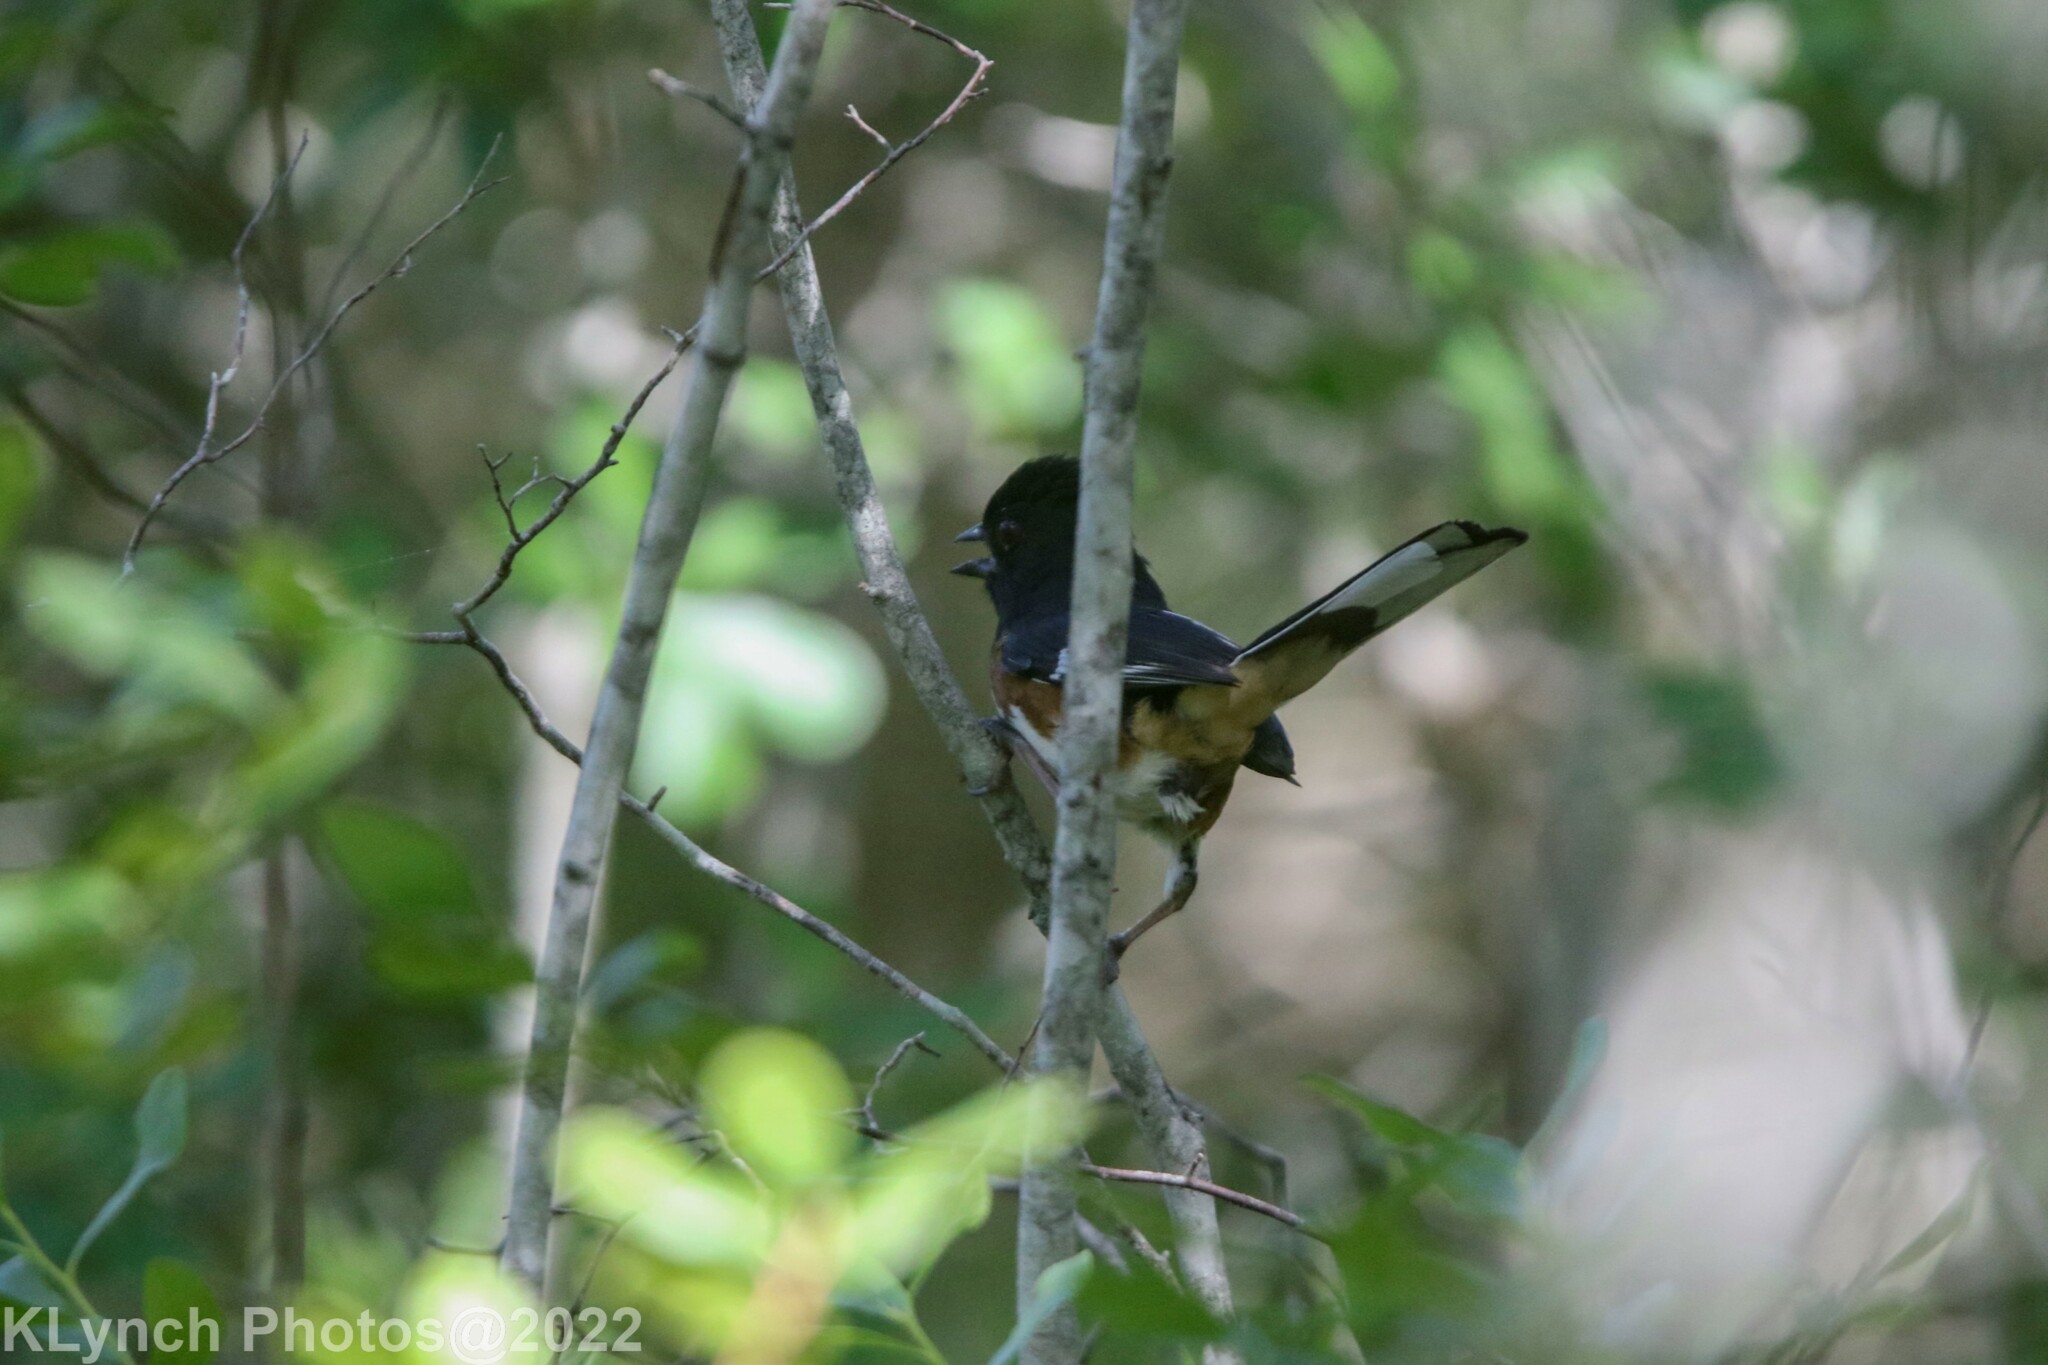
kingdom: Animalia
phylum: Chordata
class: Aves
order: Passeriformes
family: Passerellidae
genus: Pipilo
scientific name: Pipilo erythrophthalmus
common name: Eastern towhee
